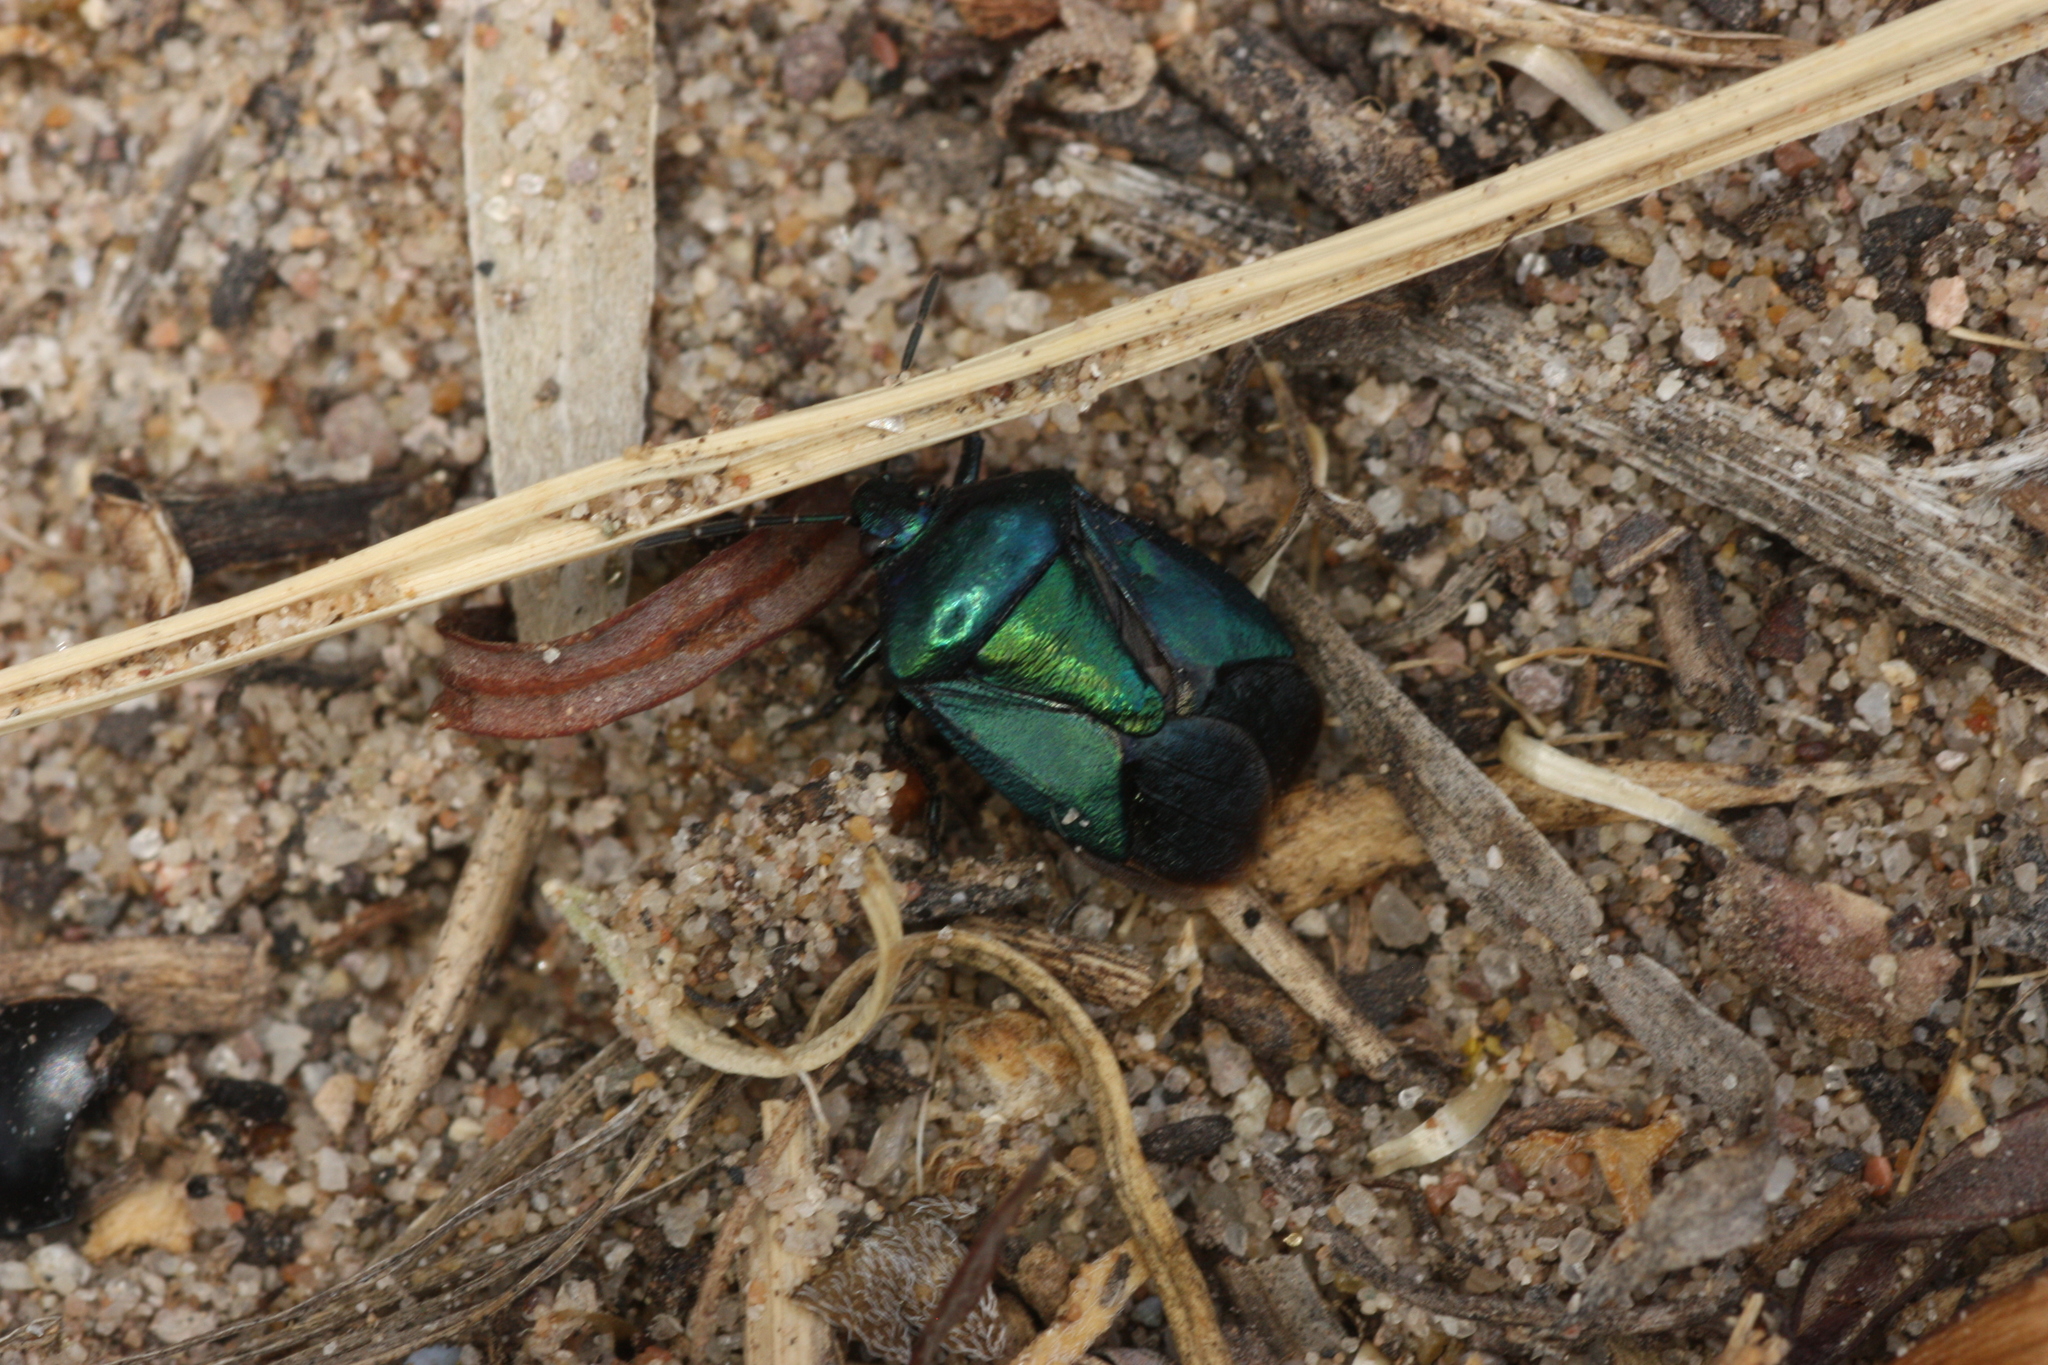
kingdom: Animalia
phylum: Arthropoda
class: Insecta
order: Hemiptera
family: Pentatomidae
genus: Zicrona
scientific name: Zicrona
